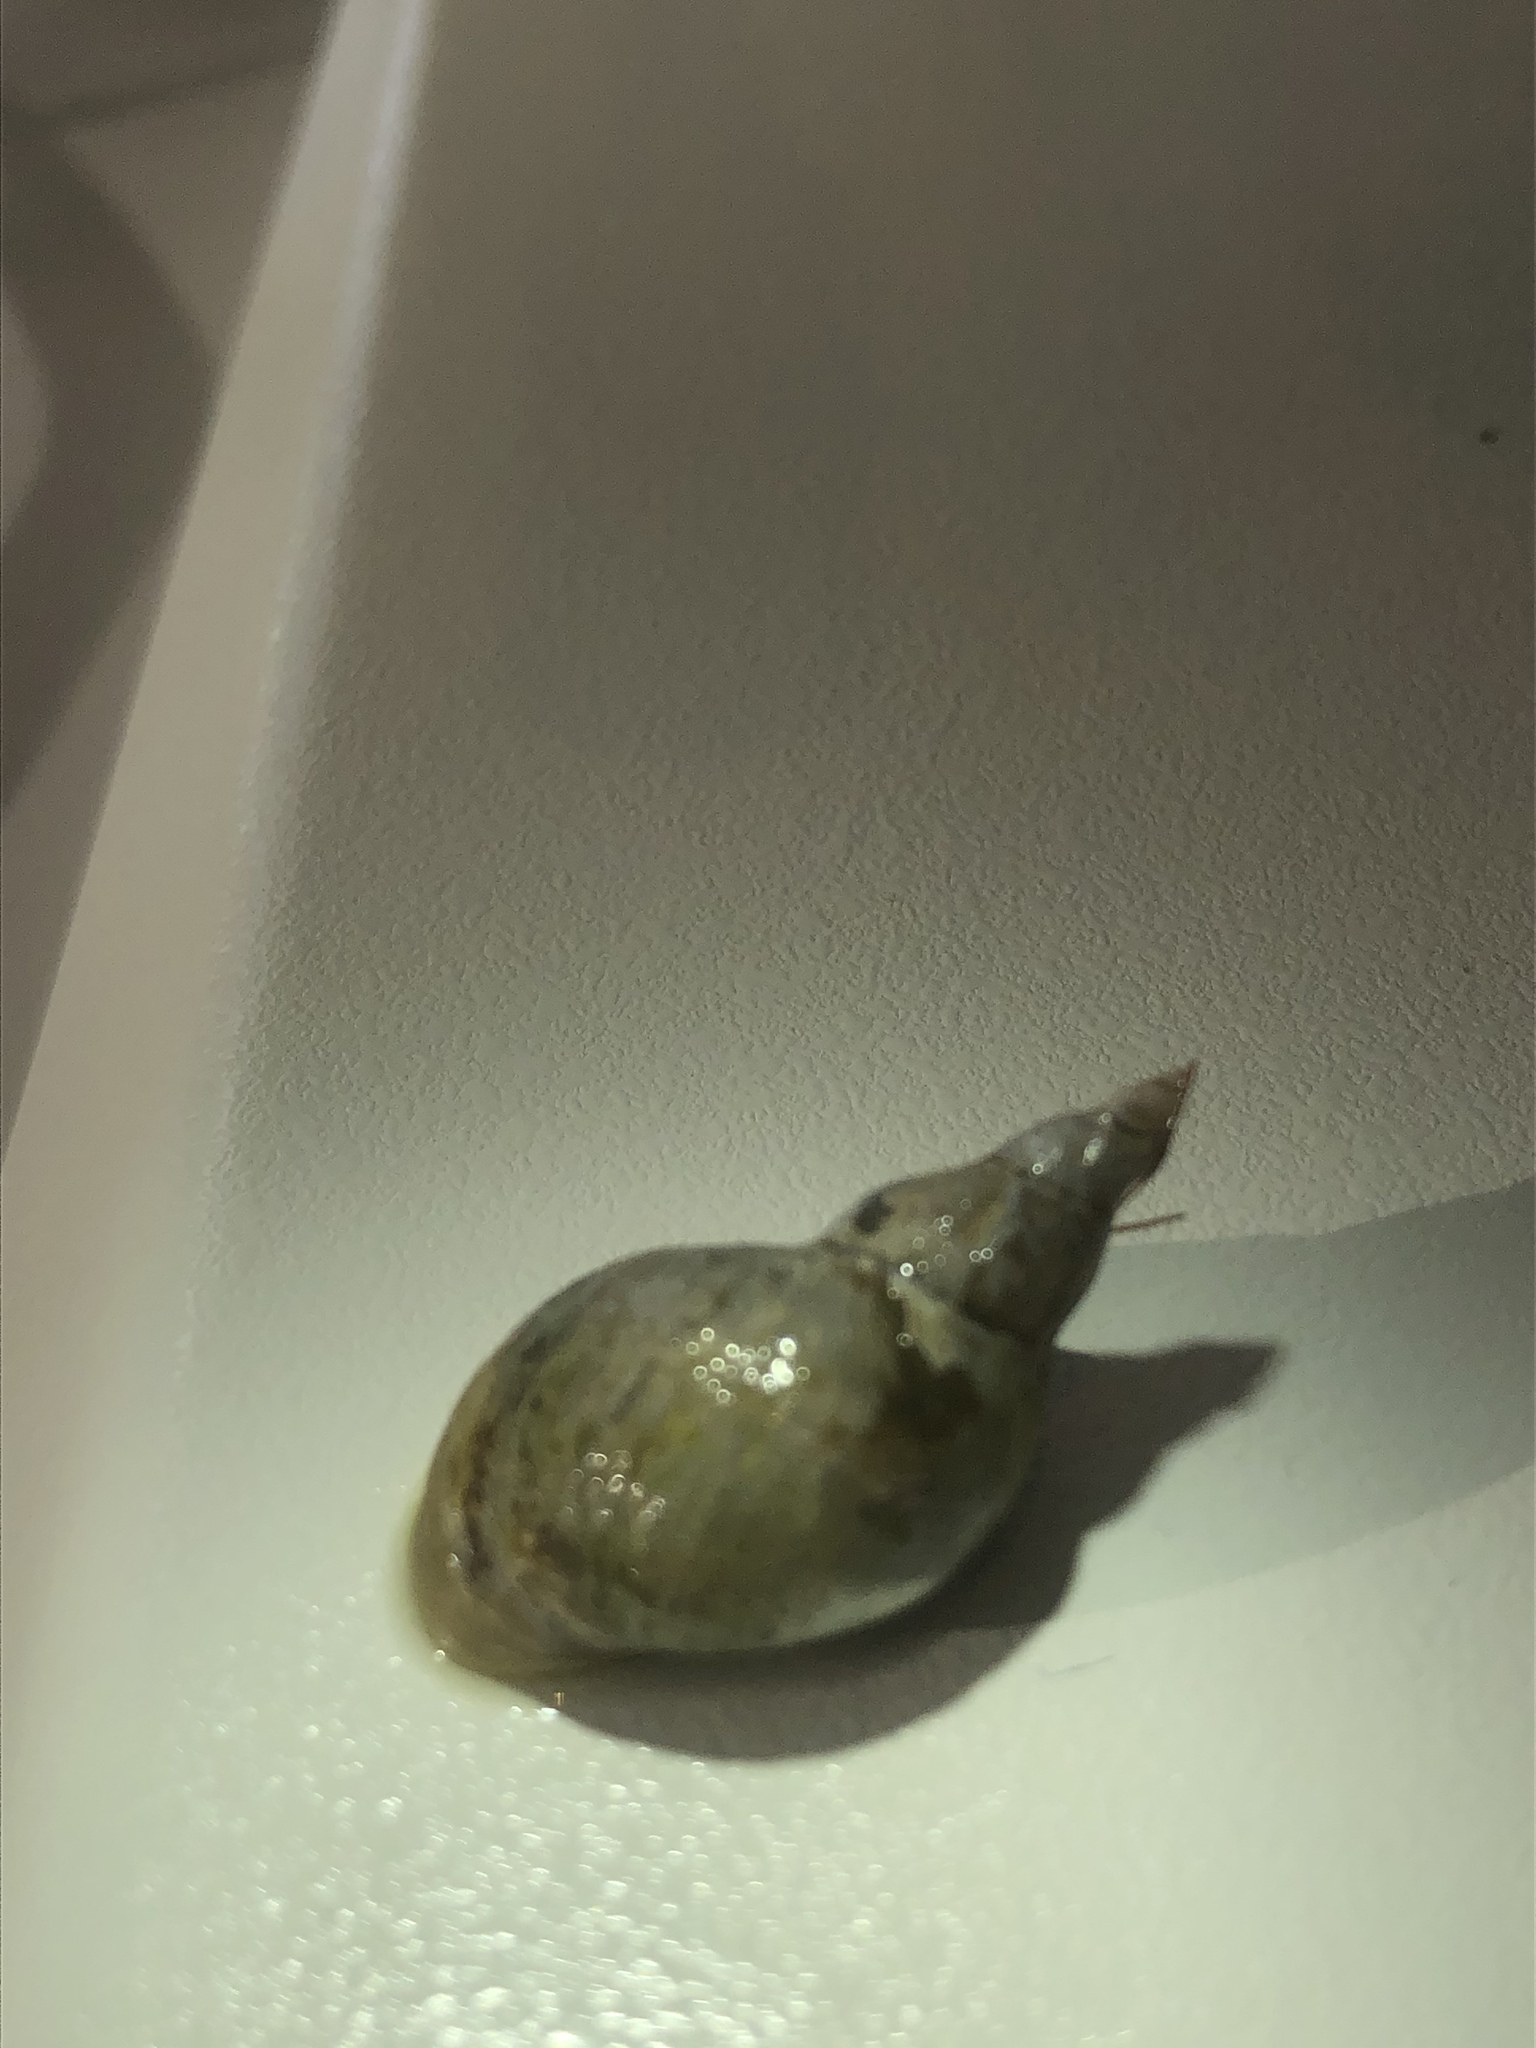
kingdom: Animalia
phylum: Mollusca
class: Gastropoda
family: Lymnaeidae
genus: Lymnaea
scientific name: Lymnaea stagnalis
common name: Great pond snail
